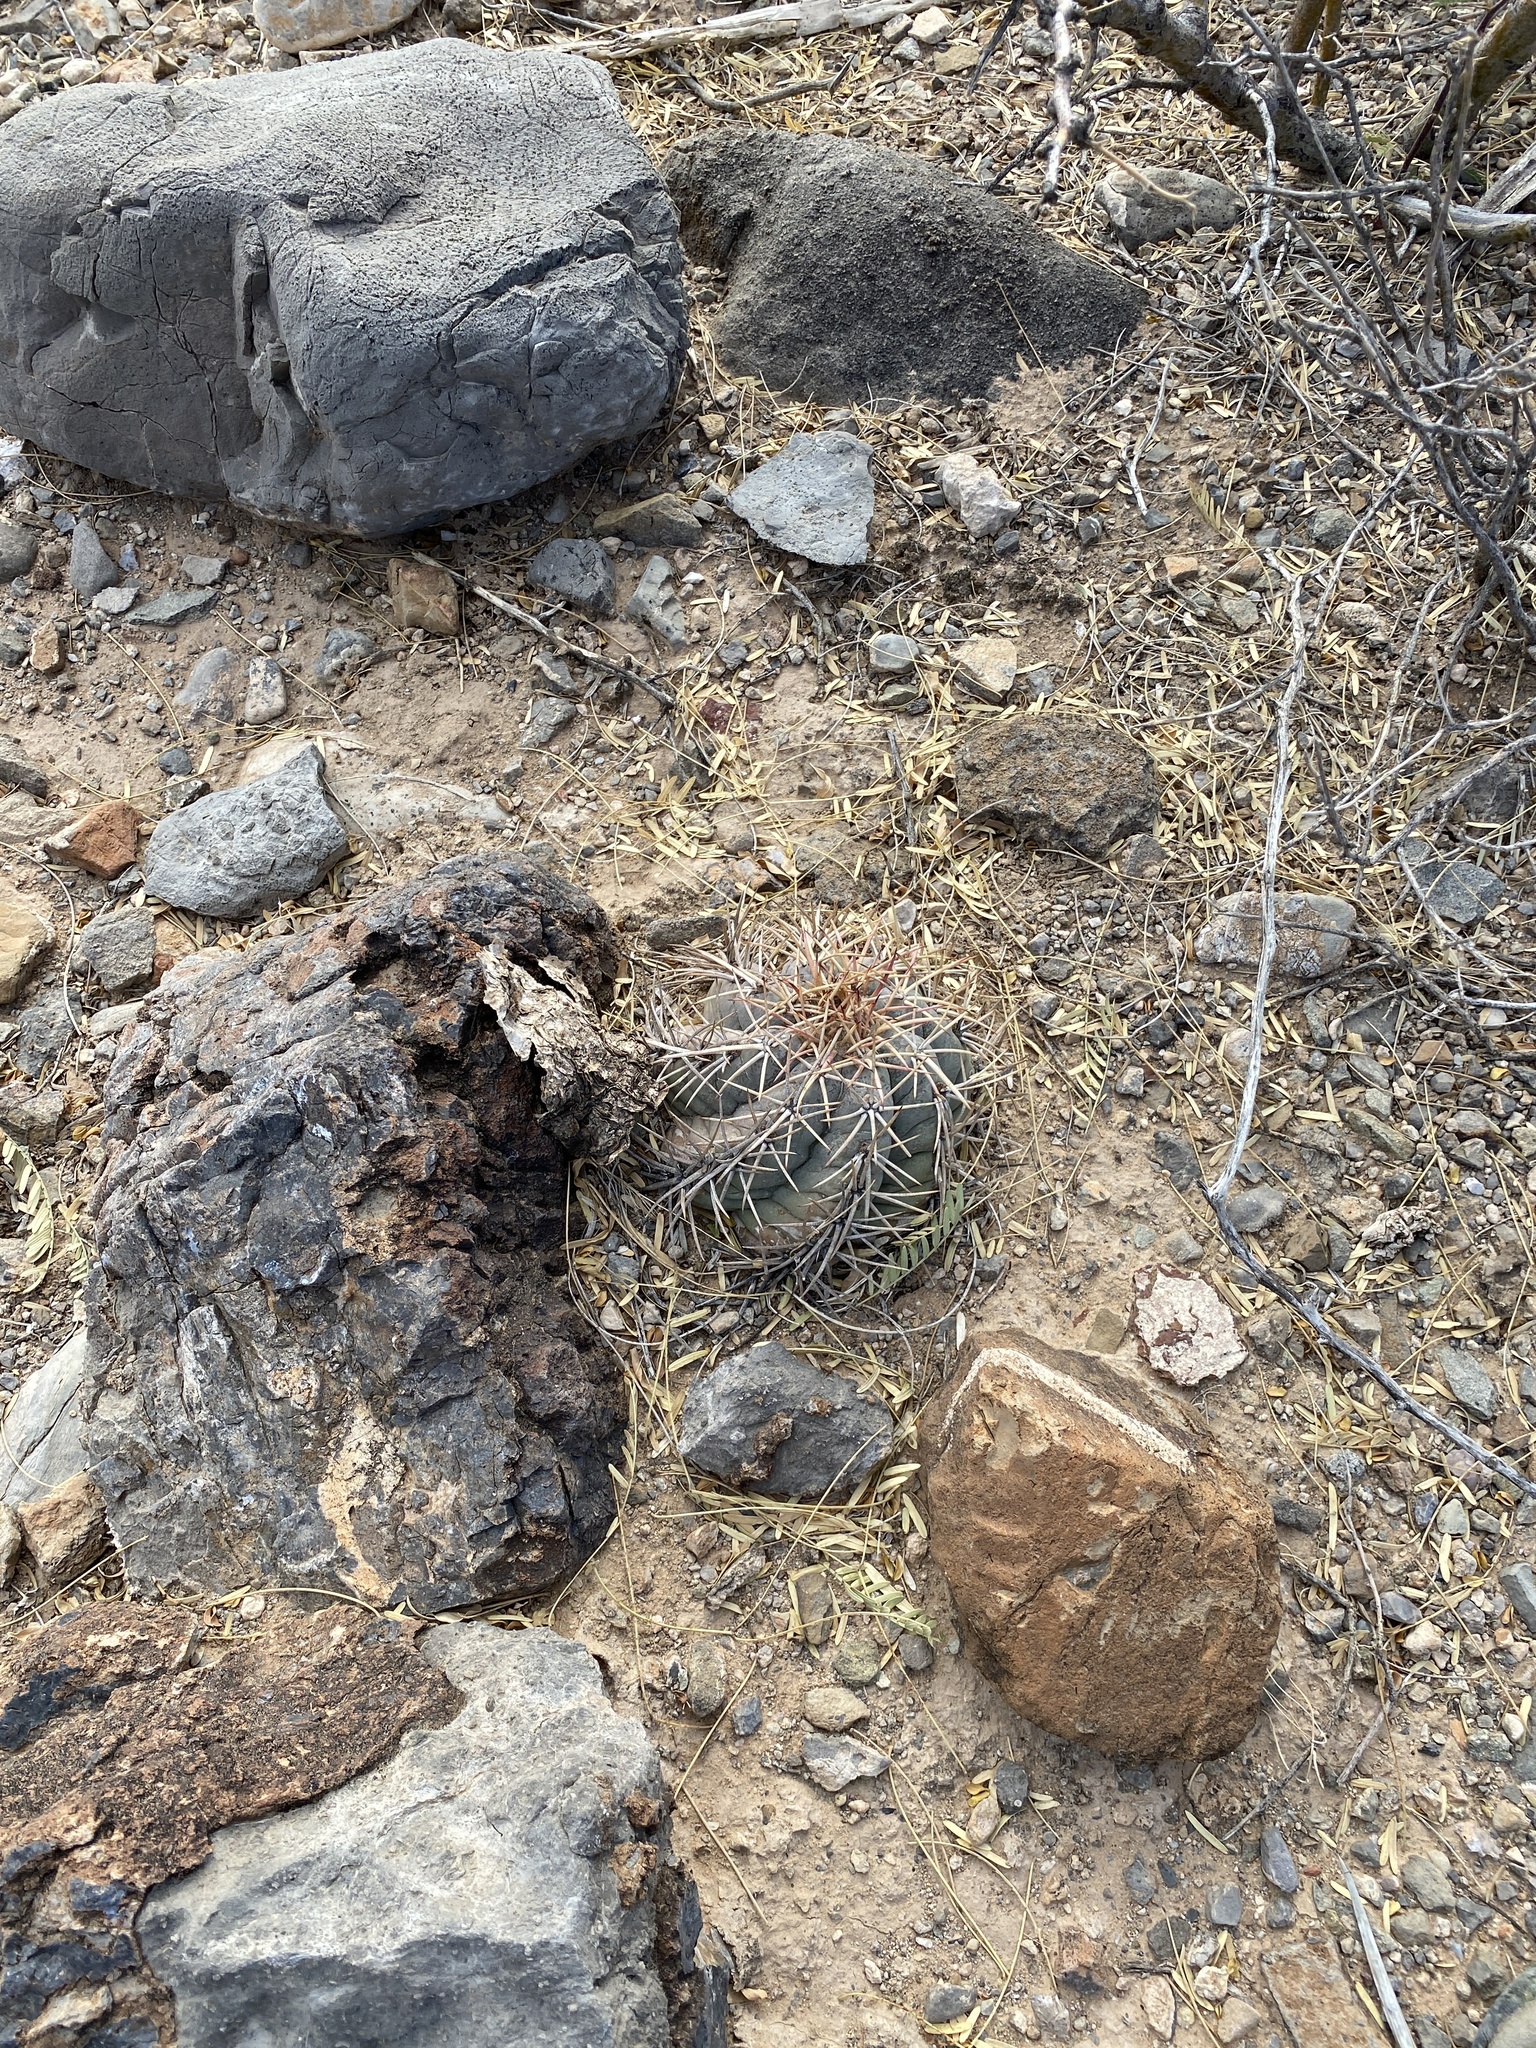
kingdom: Plantae
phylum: Tracheophyta
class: Magnoliopsida
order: Caryophyllales
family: Cactaceae
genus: Echinocactus
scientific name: Echinocactus horizonthalonius
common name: Devilshead
